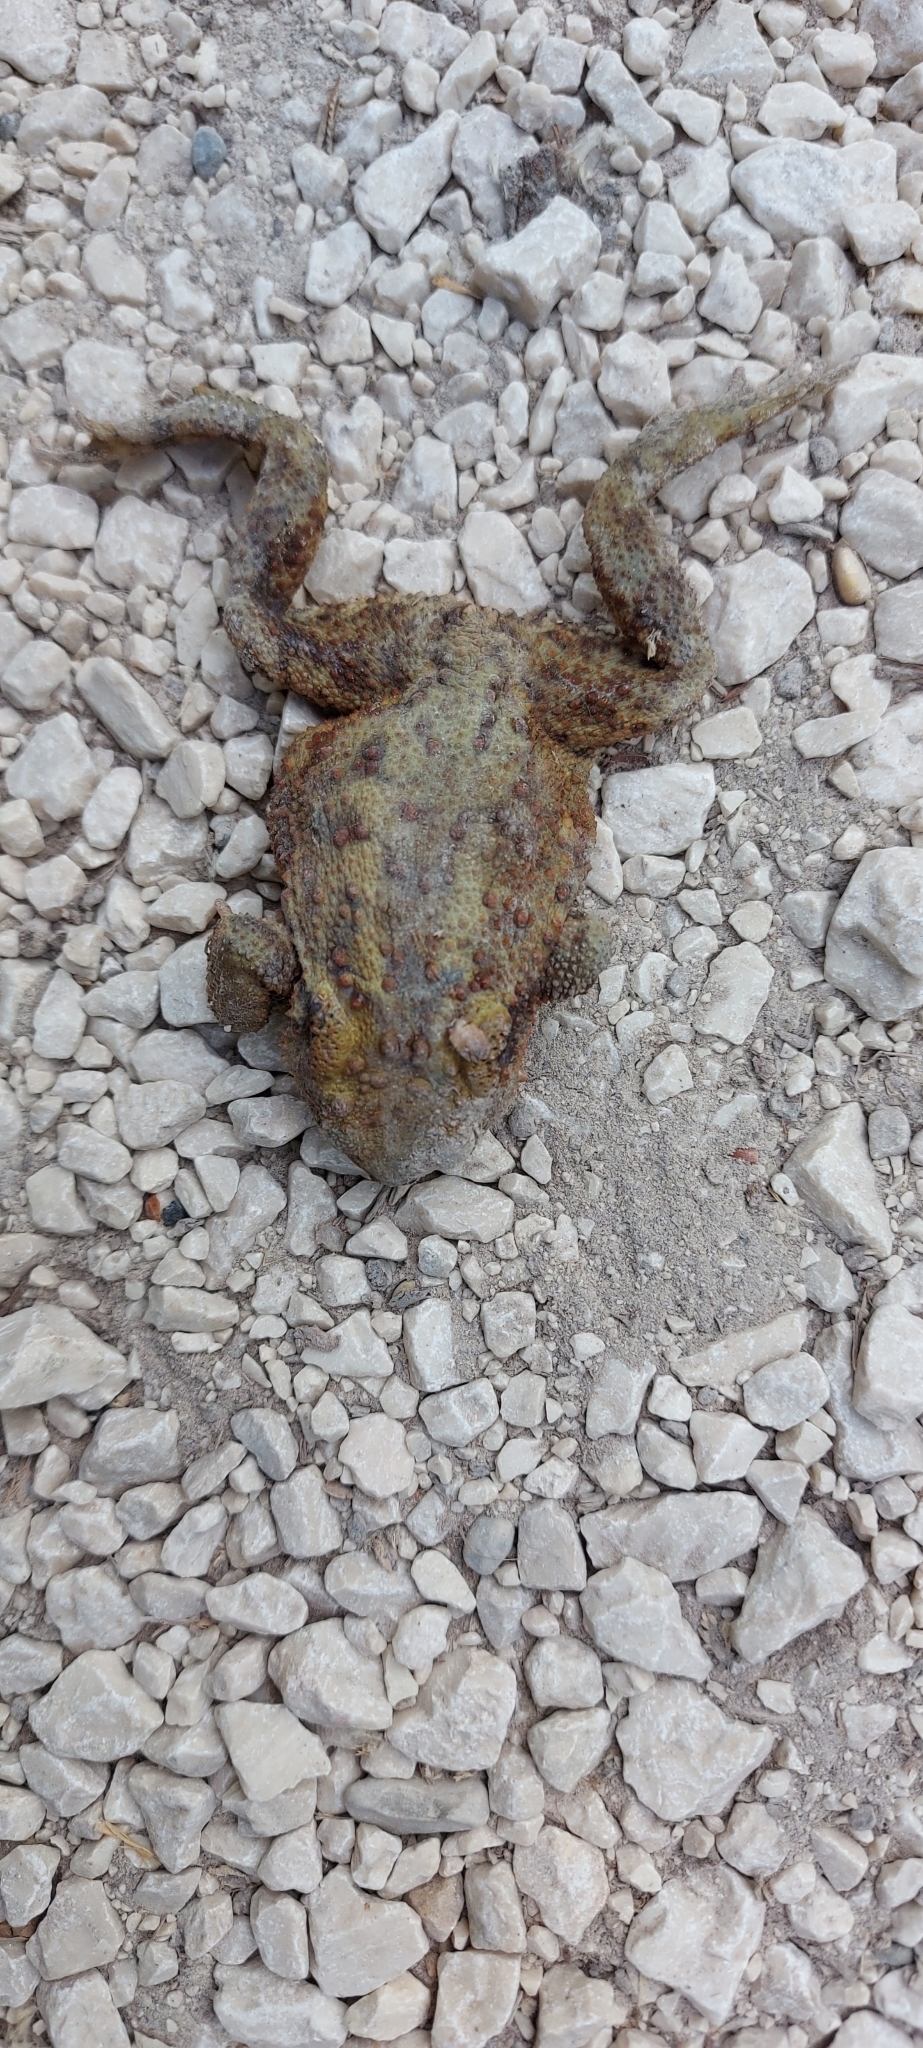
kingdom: Animalia
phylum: Chordata
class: Amphibia
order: Anura
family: Bufonidae
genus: Bufo
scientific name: Bufo bufo
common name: Common toad
